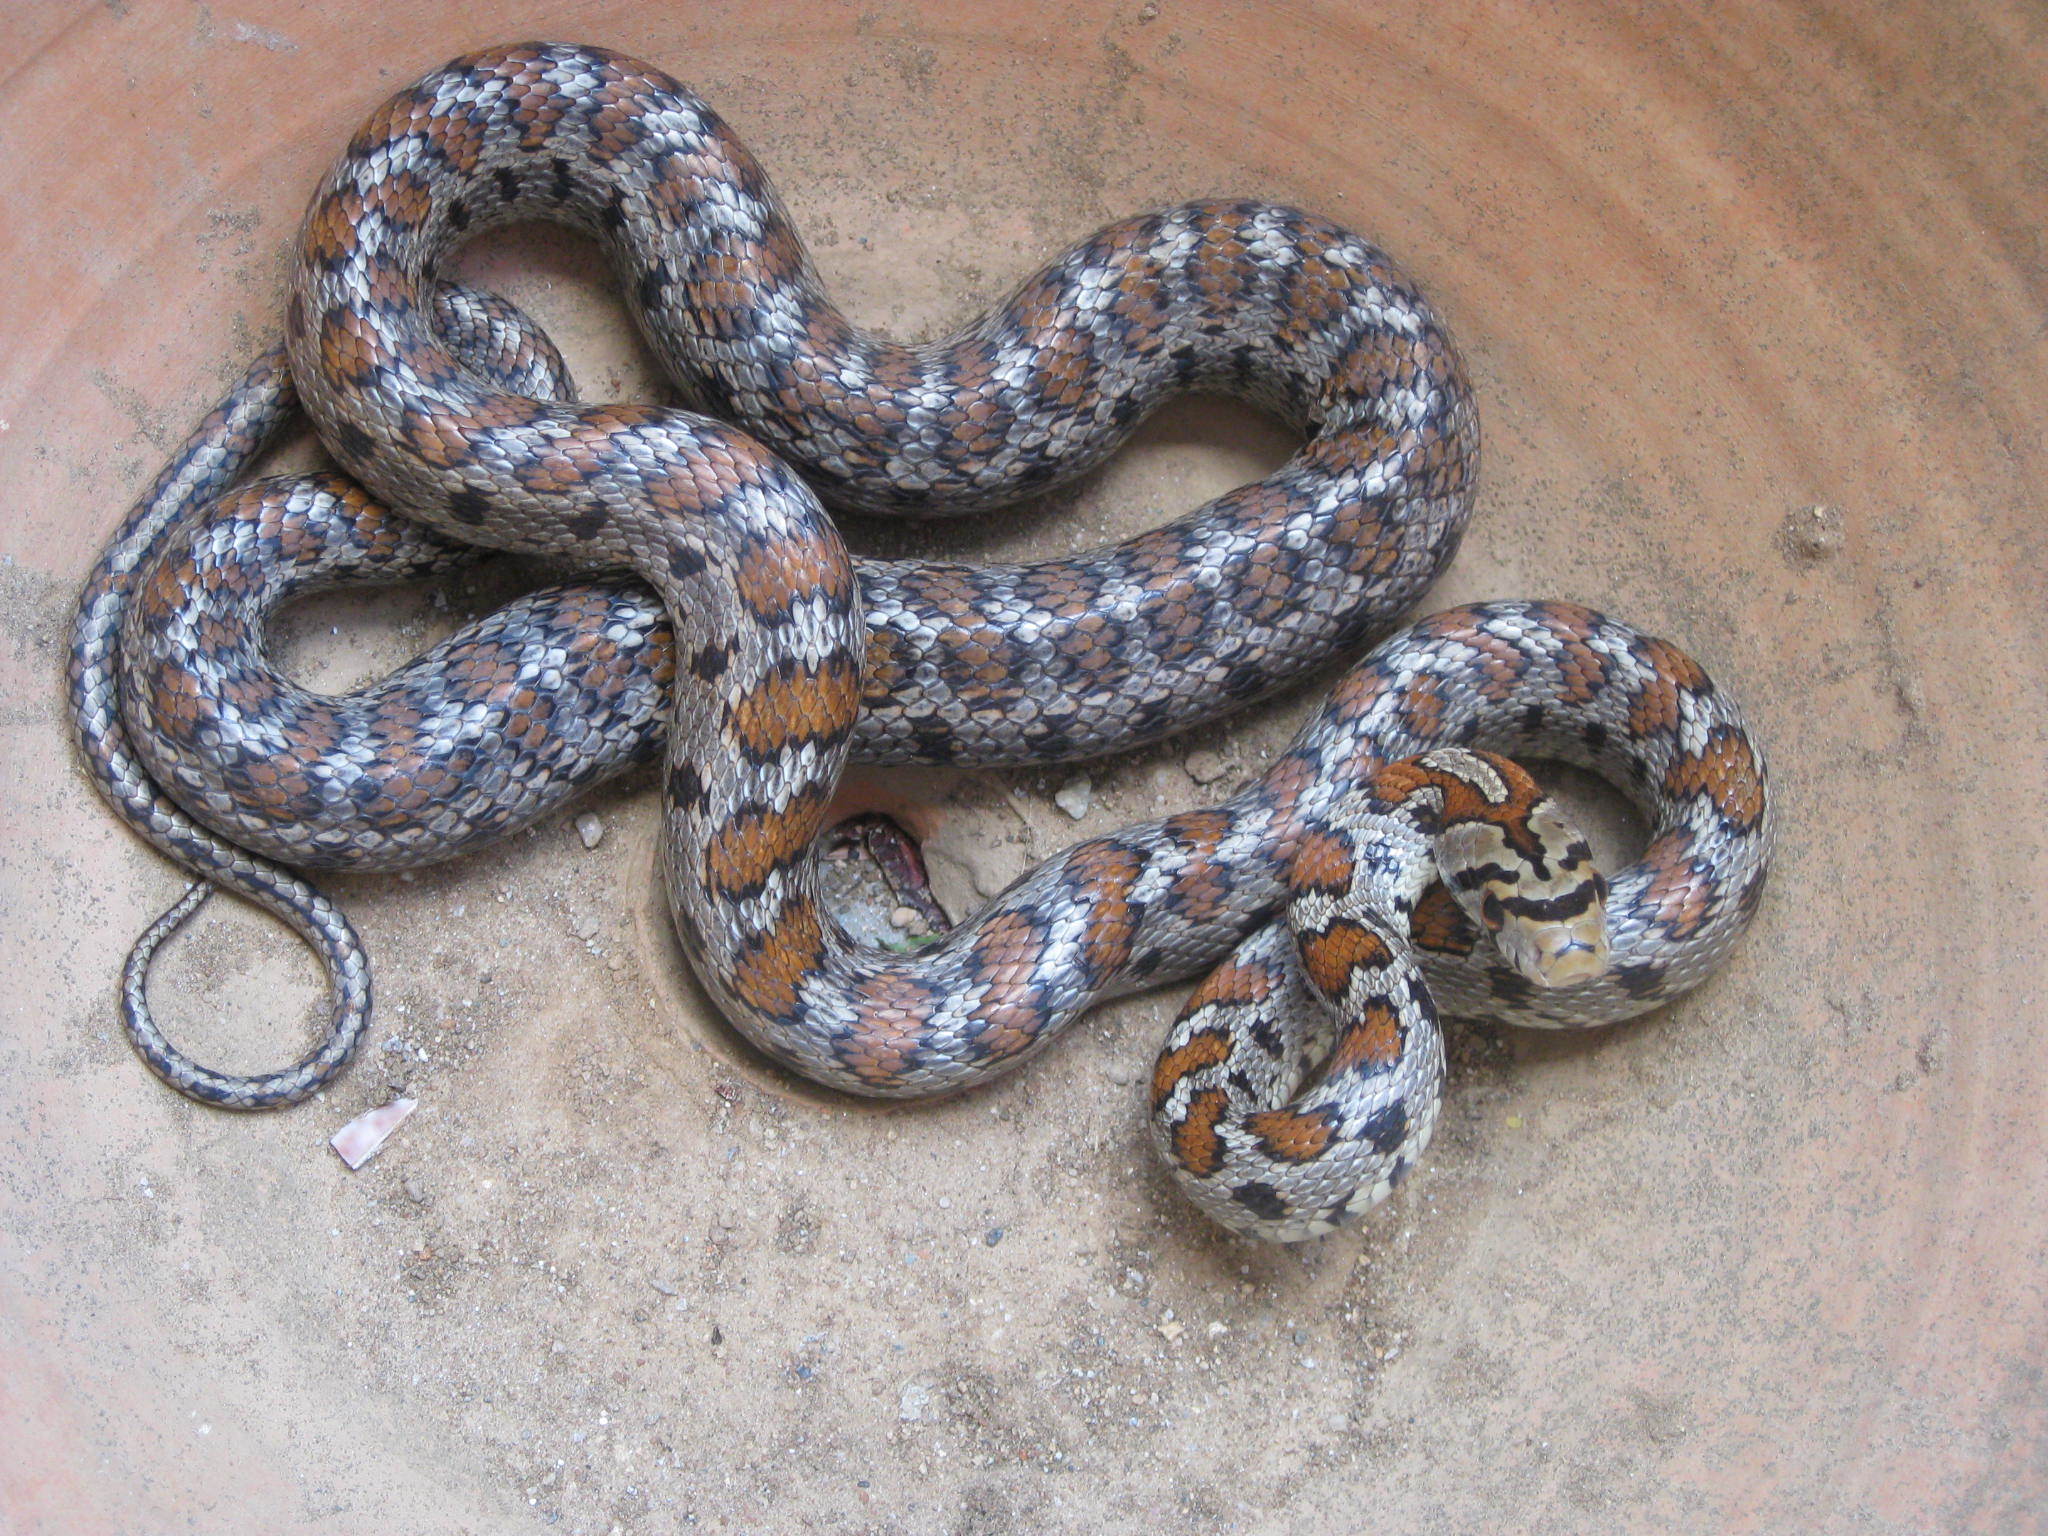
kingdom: Animalia
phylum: Chordata
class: Squamata
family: Colubridae
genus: Zamenis
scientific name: Zamenis situla
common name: European ratsnake
